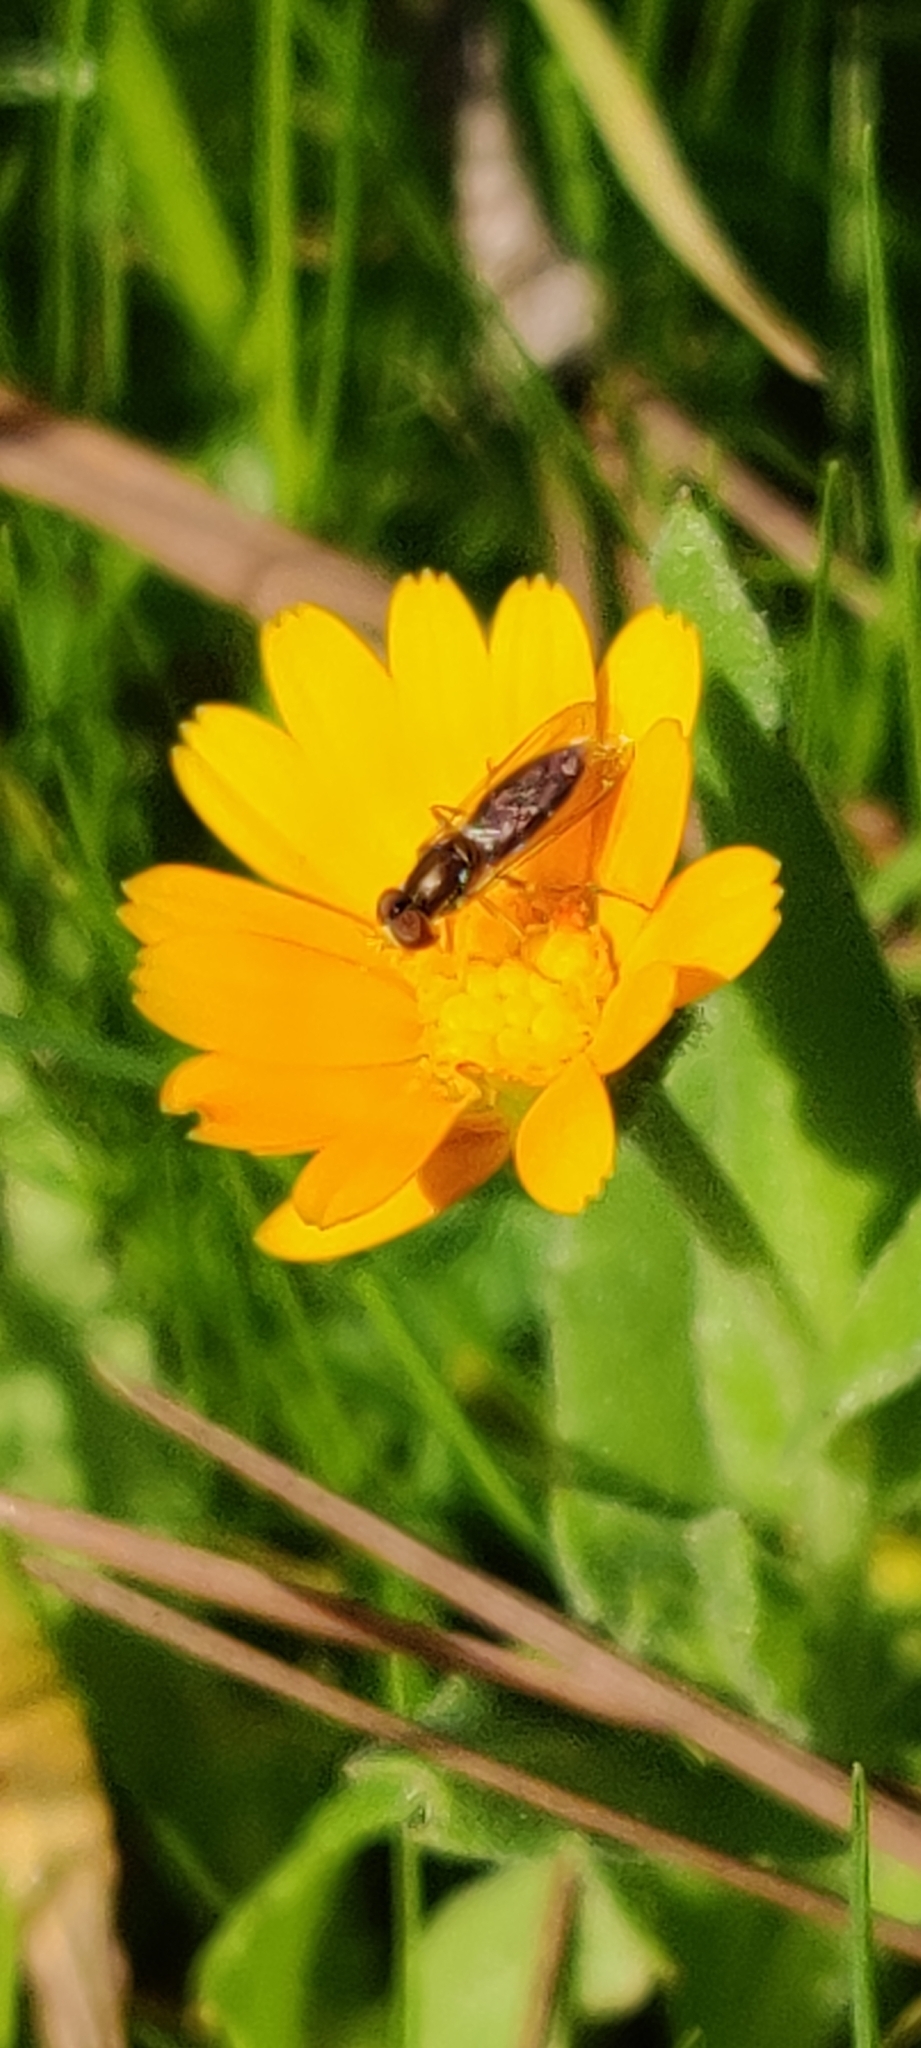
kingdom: Animalia
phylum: Arthropoda
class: Insecta
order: Diptera
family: Syrphidae
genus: Toxomerus
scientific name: Toxomerus marginatus
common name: Syrphid fly
